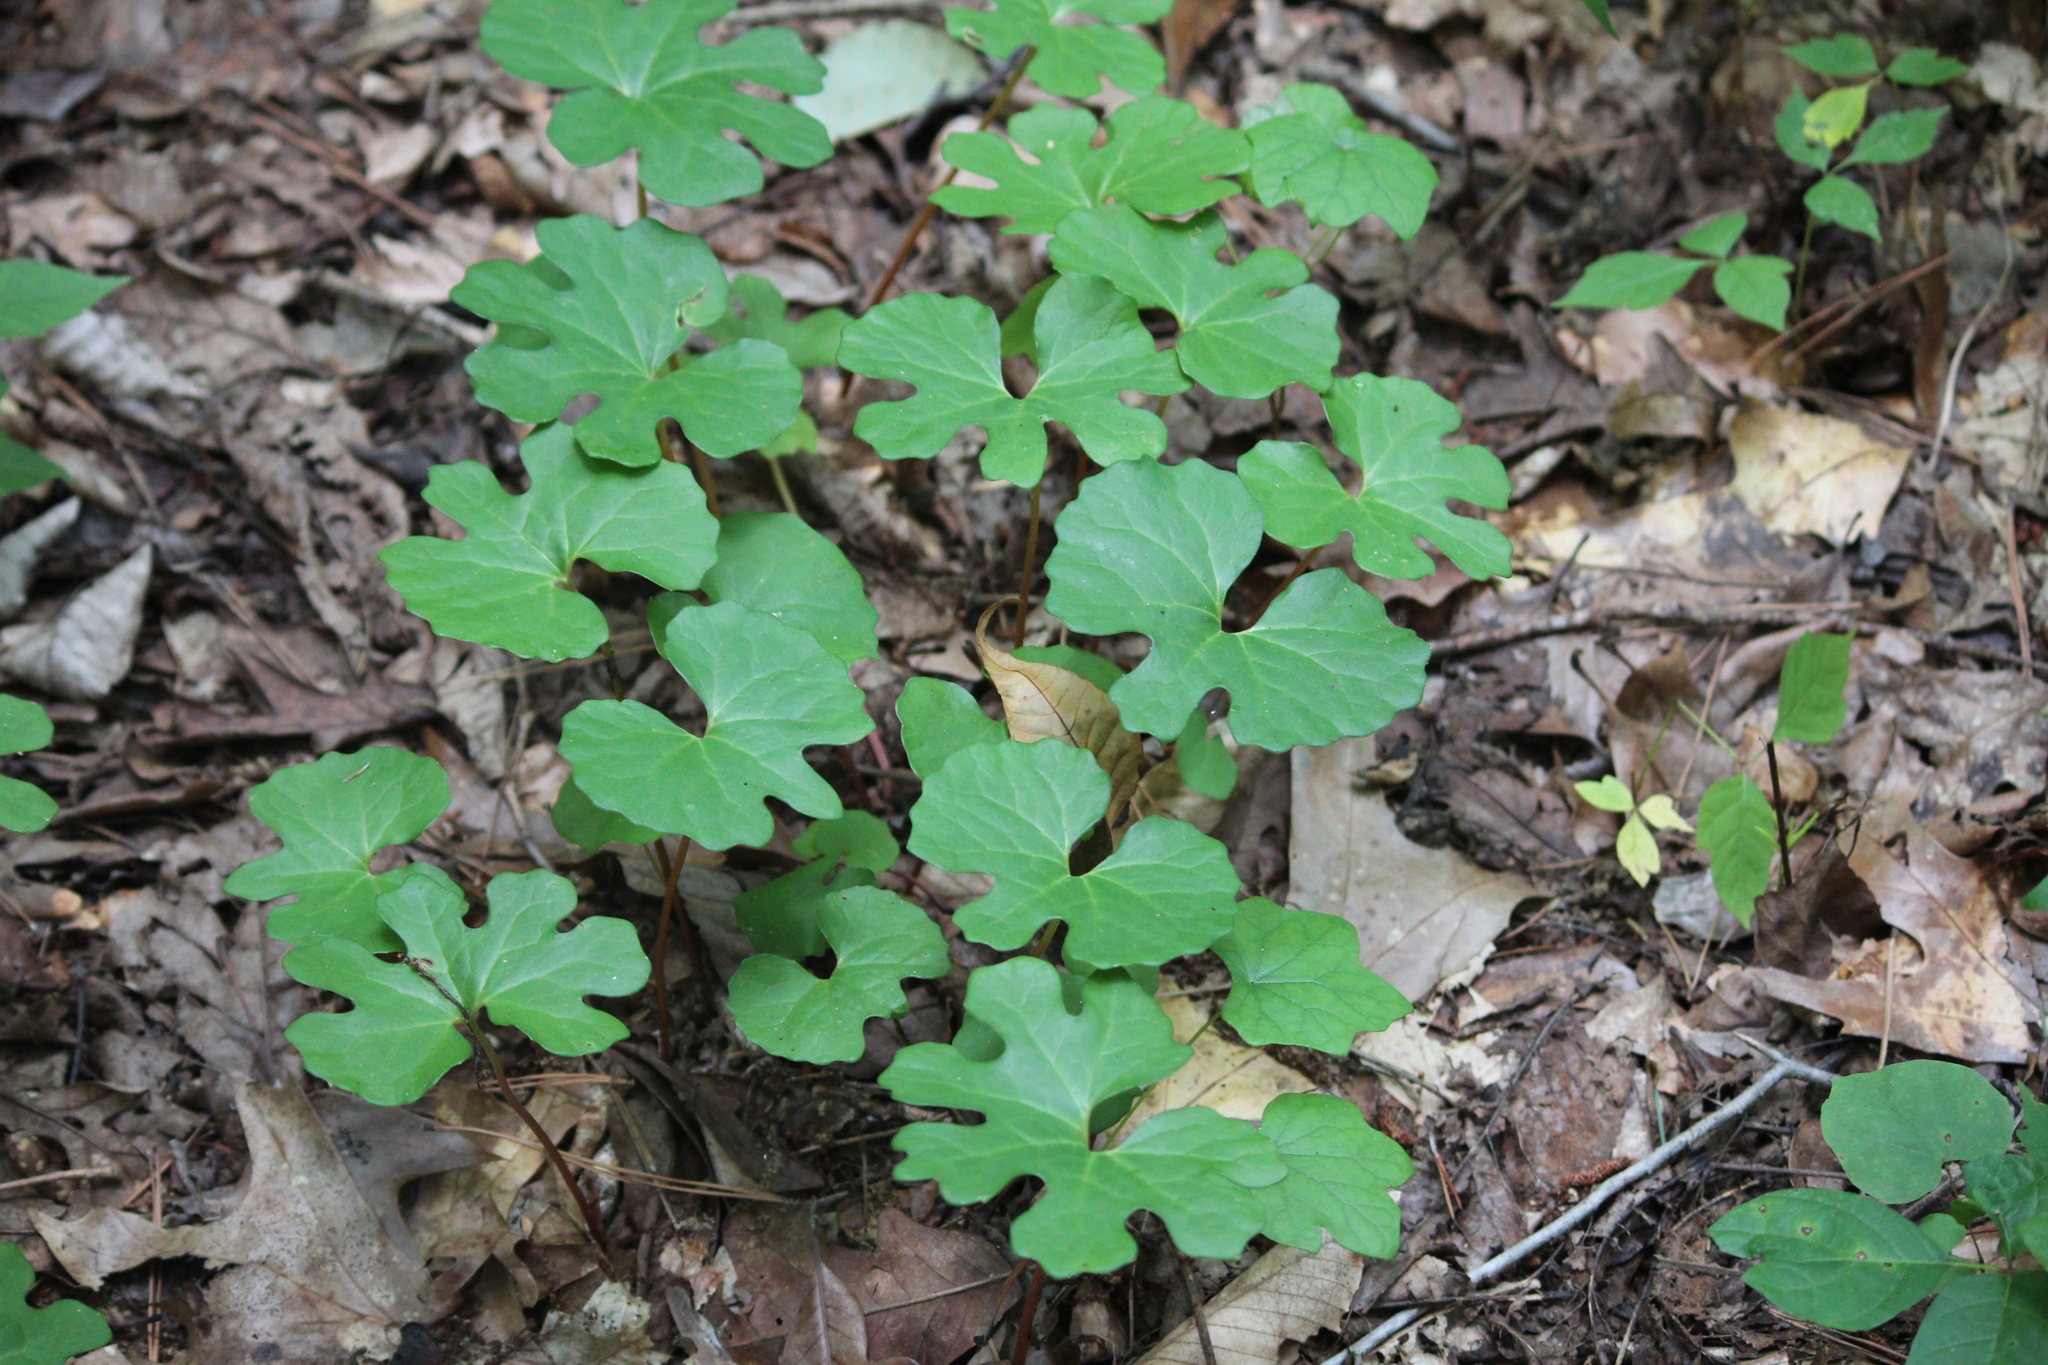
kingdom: Plantae
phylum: Tracheophyta
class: Magnoliopsida
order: Ranunculales
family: Papaveraceae
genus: Sanguinaria
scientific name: Sanguinaria canadensis
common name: Bloodroot
